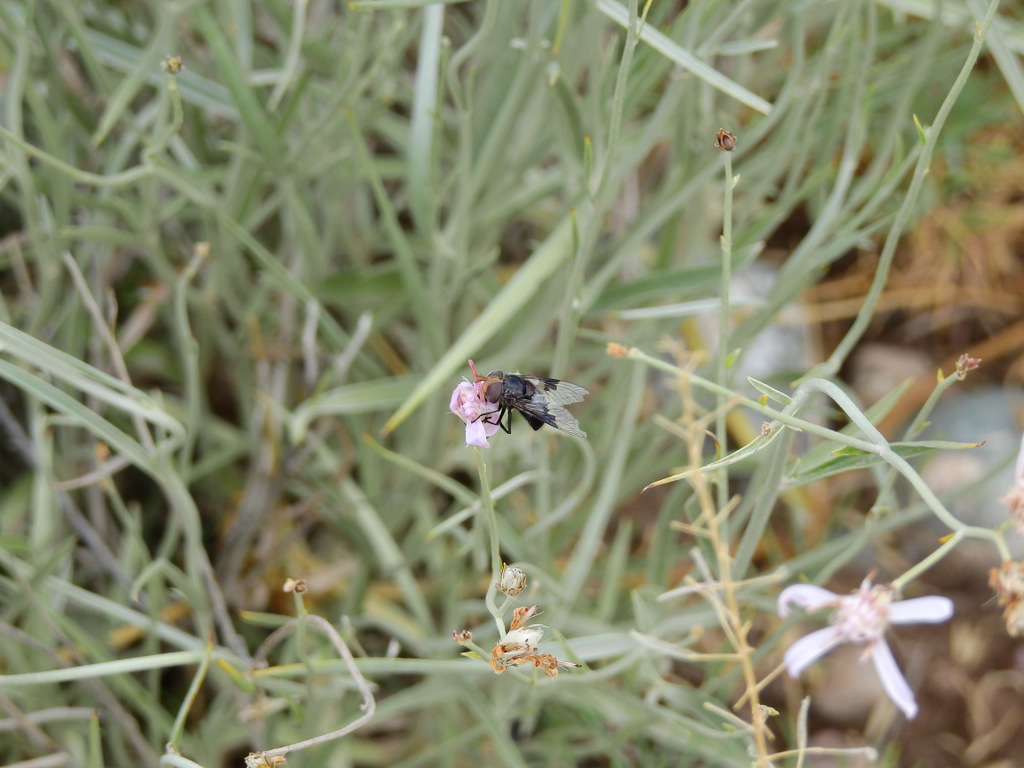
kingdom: Plantae
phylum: Tracheophyta
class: Magnoliopsida
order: Asterales
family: Asteraceae
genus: Hyalis
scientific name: Hyalis argentea
